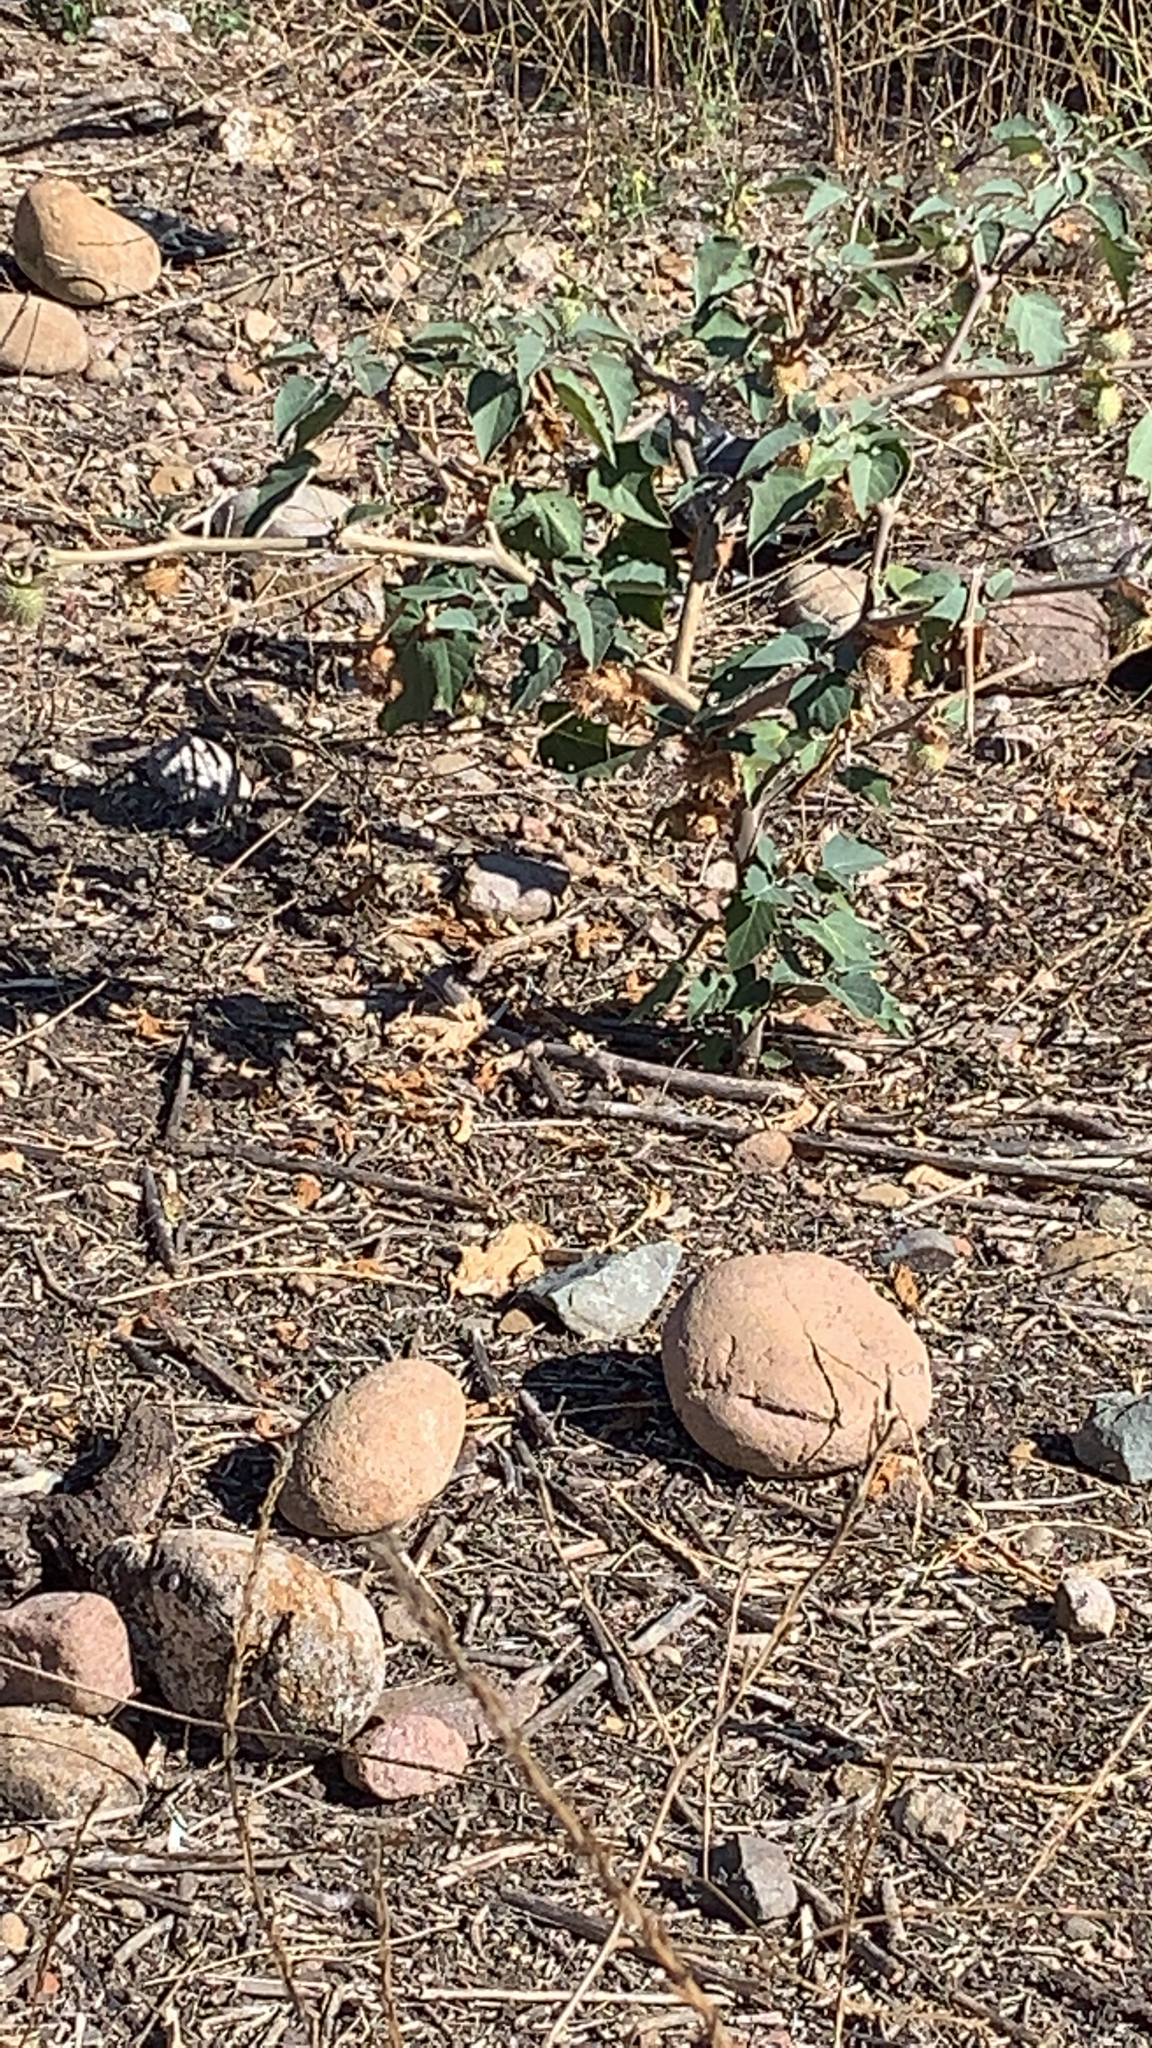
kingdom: Plantae
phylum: Tracheophyta
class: Magnoliopsida
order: Solanales
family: Solanaceae
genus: Datura
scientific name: Datura wrightii
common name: Sacred thorn-apple
